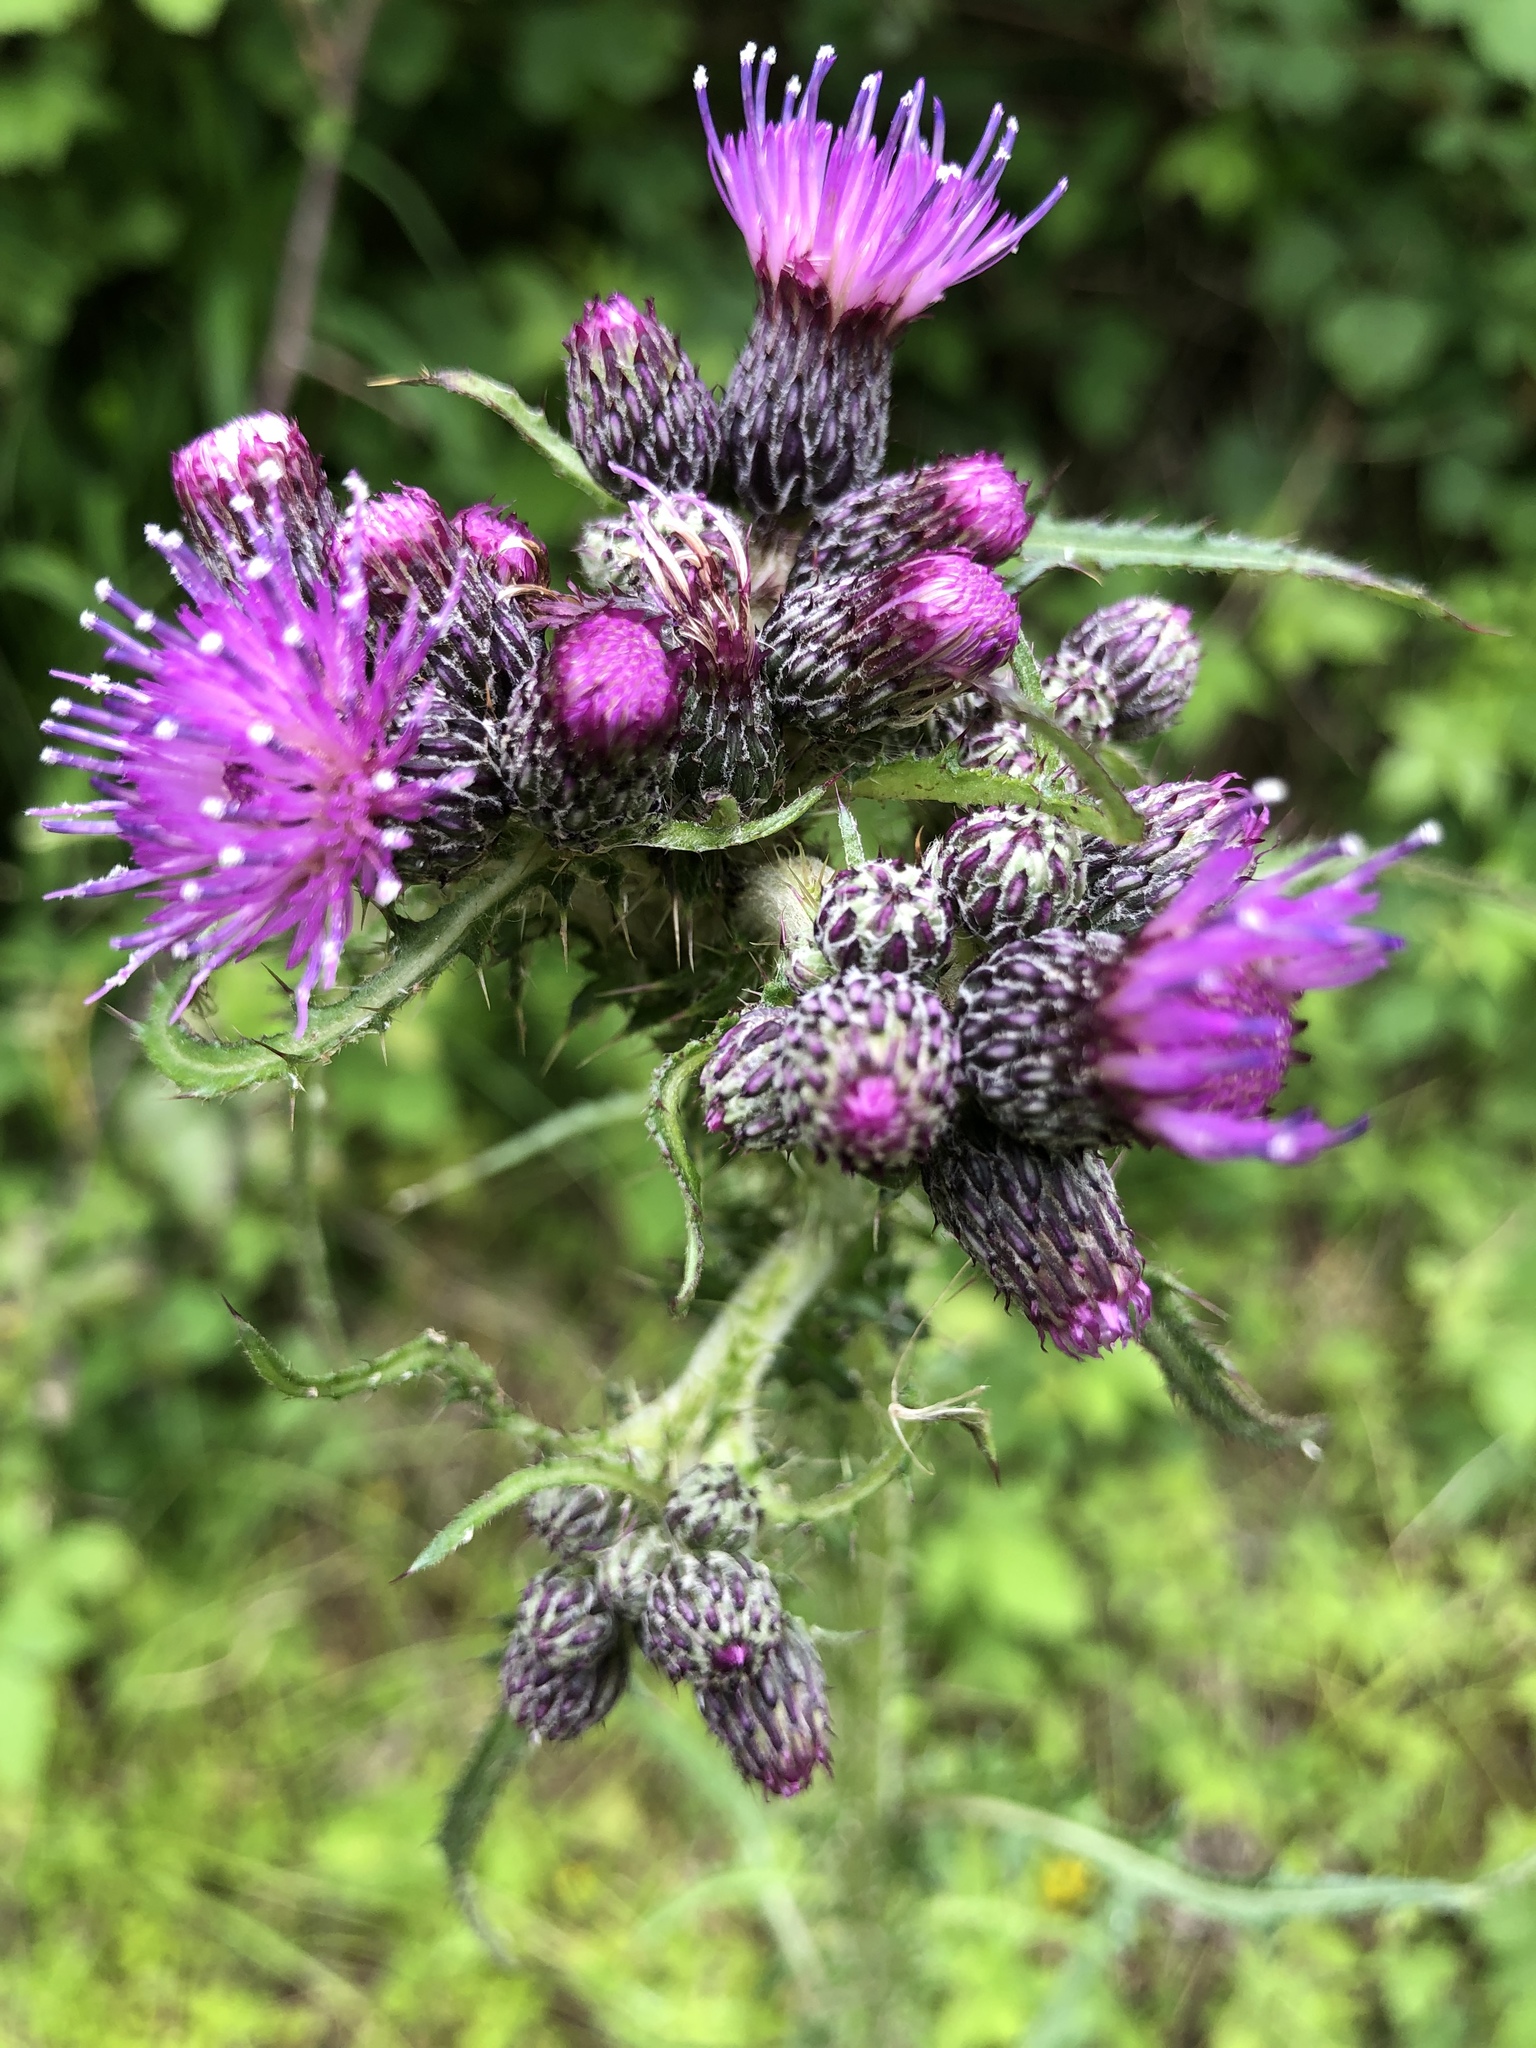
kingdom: Plantae
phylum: Tracheophyta
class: Magnoliopsida
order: Asterales
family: Asteraceae
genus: Cirsium
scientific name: Cirsium palustre
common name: Marsh thistle
